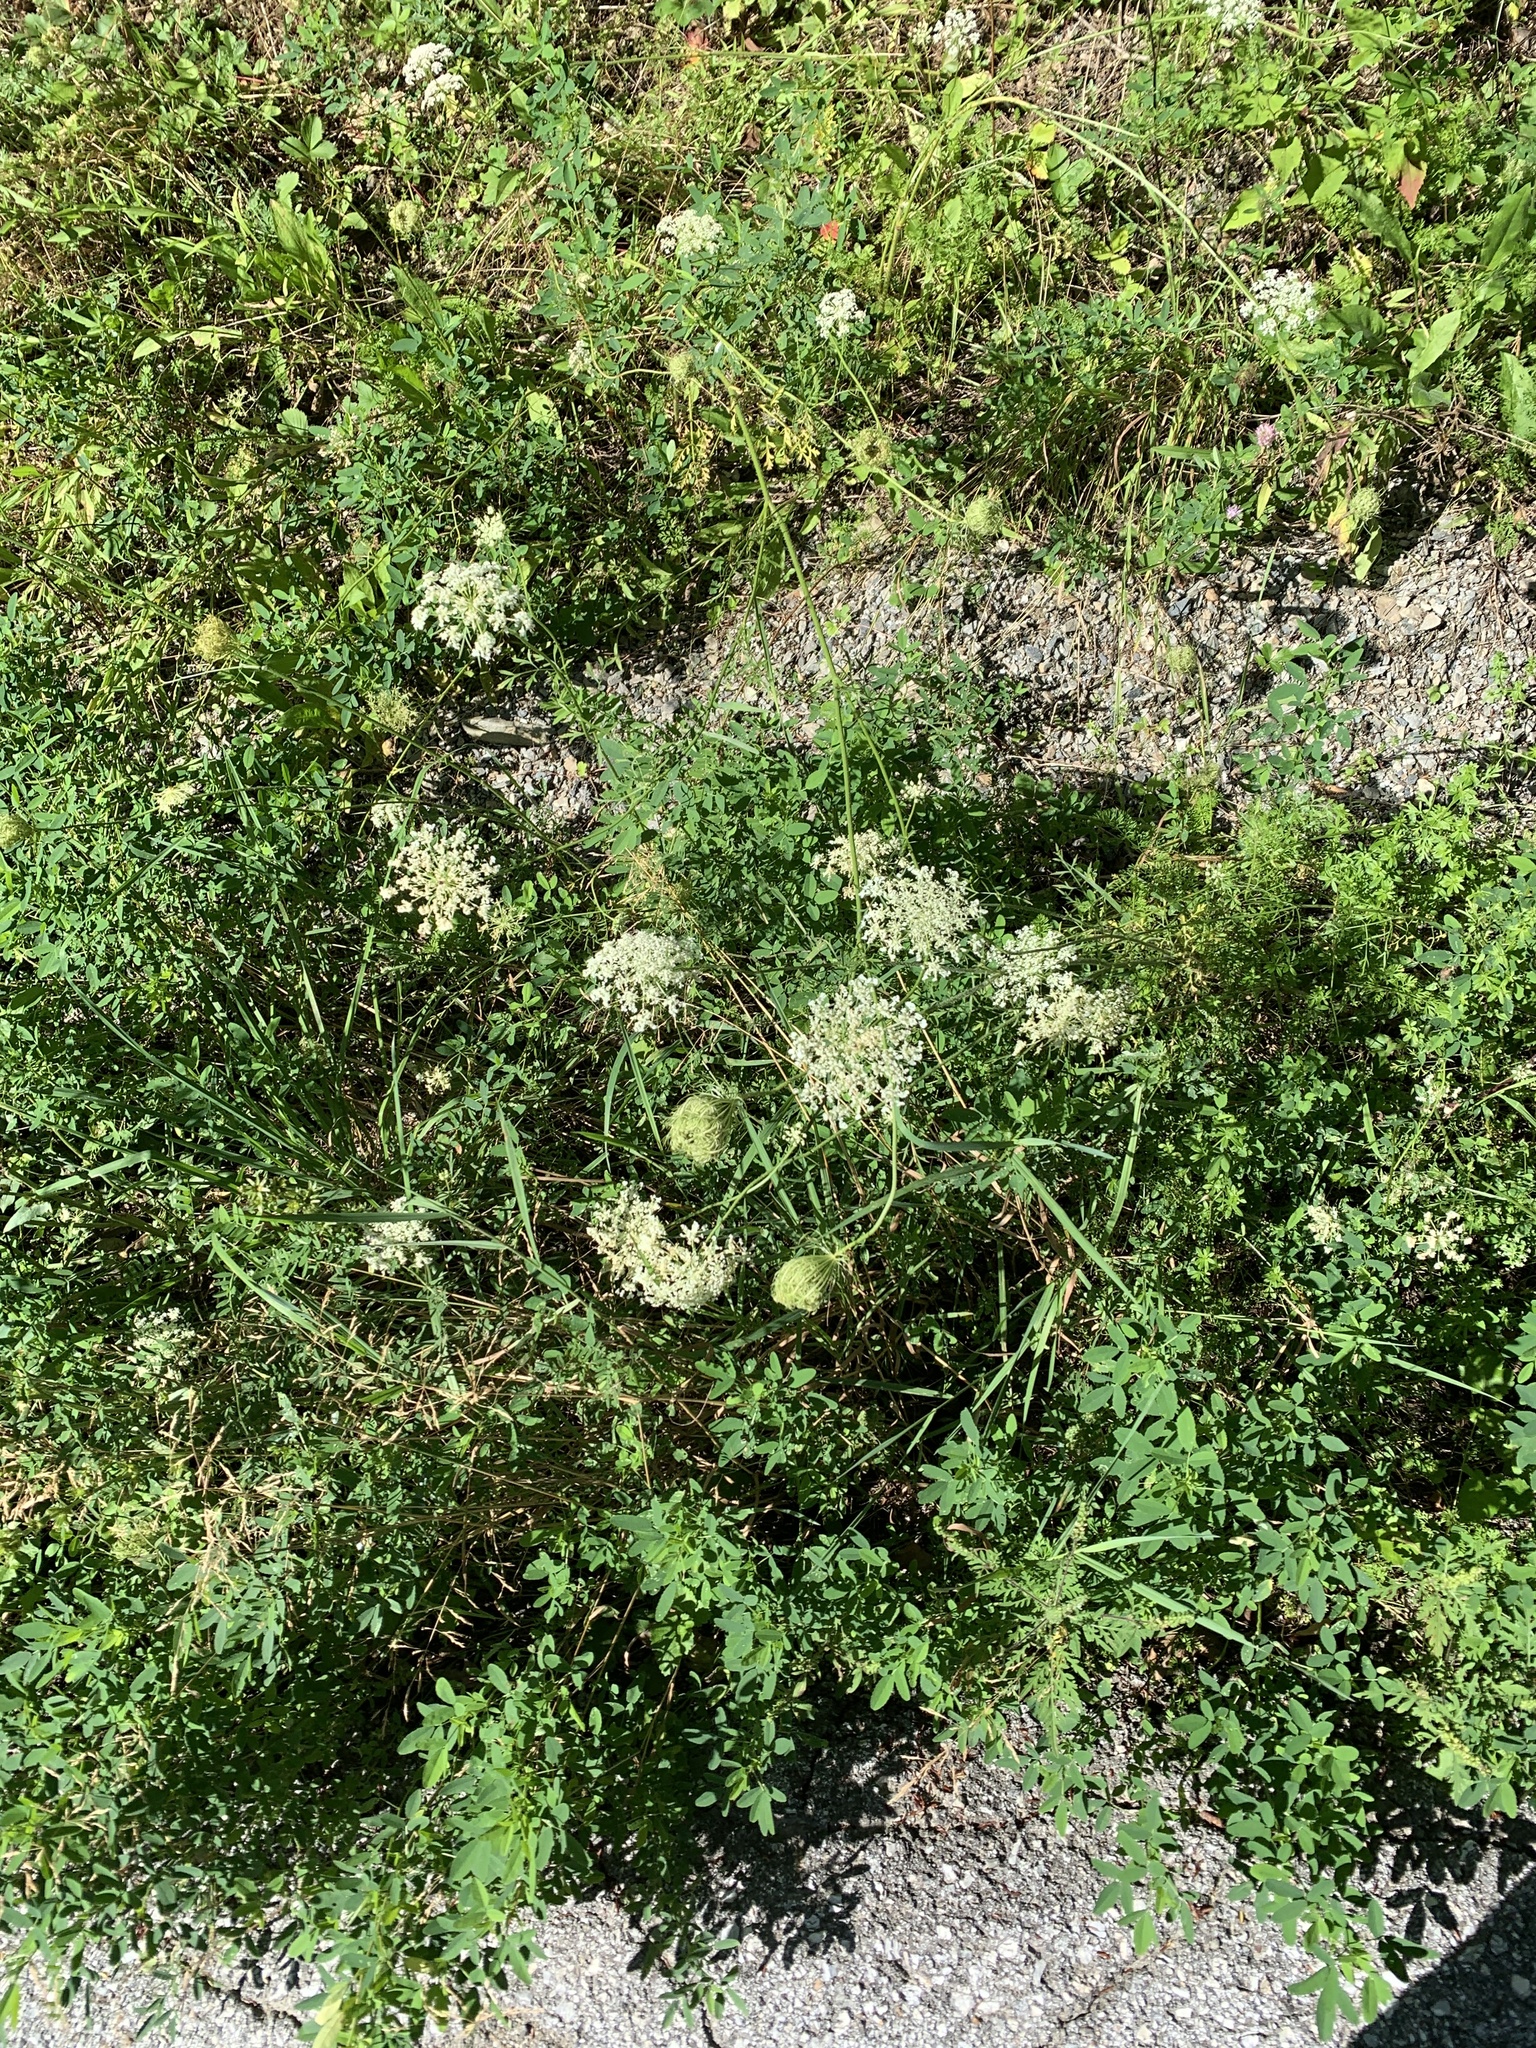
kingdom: Plantae
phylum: Tracheophyta
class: Magnoliopsida
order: Apiales
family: Apiaceae
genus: Daucus
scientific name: Daucus carota
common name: Wild carrot
